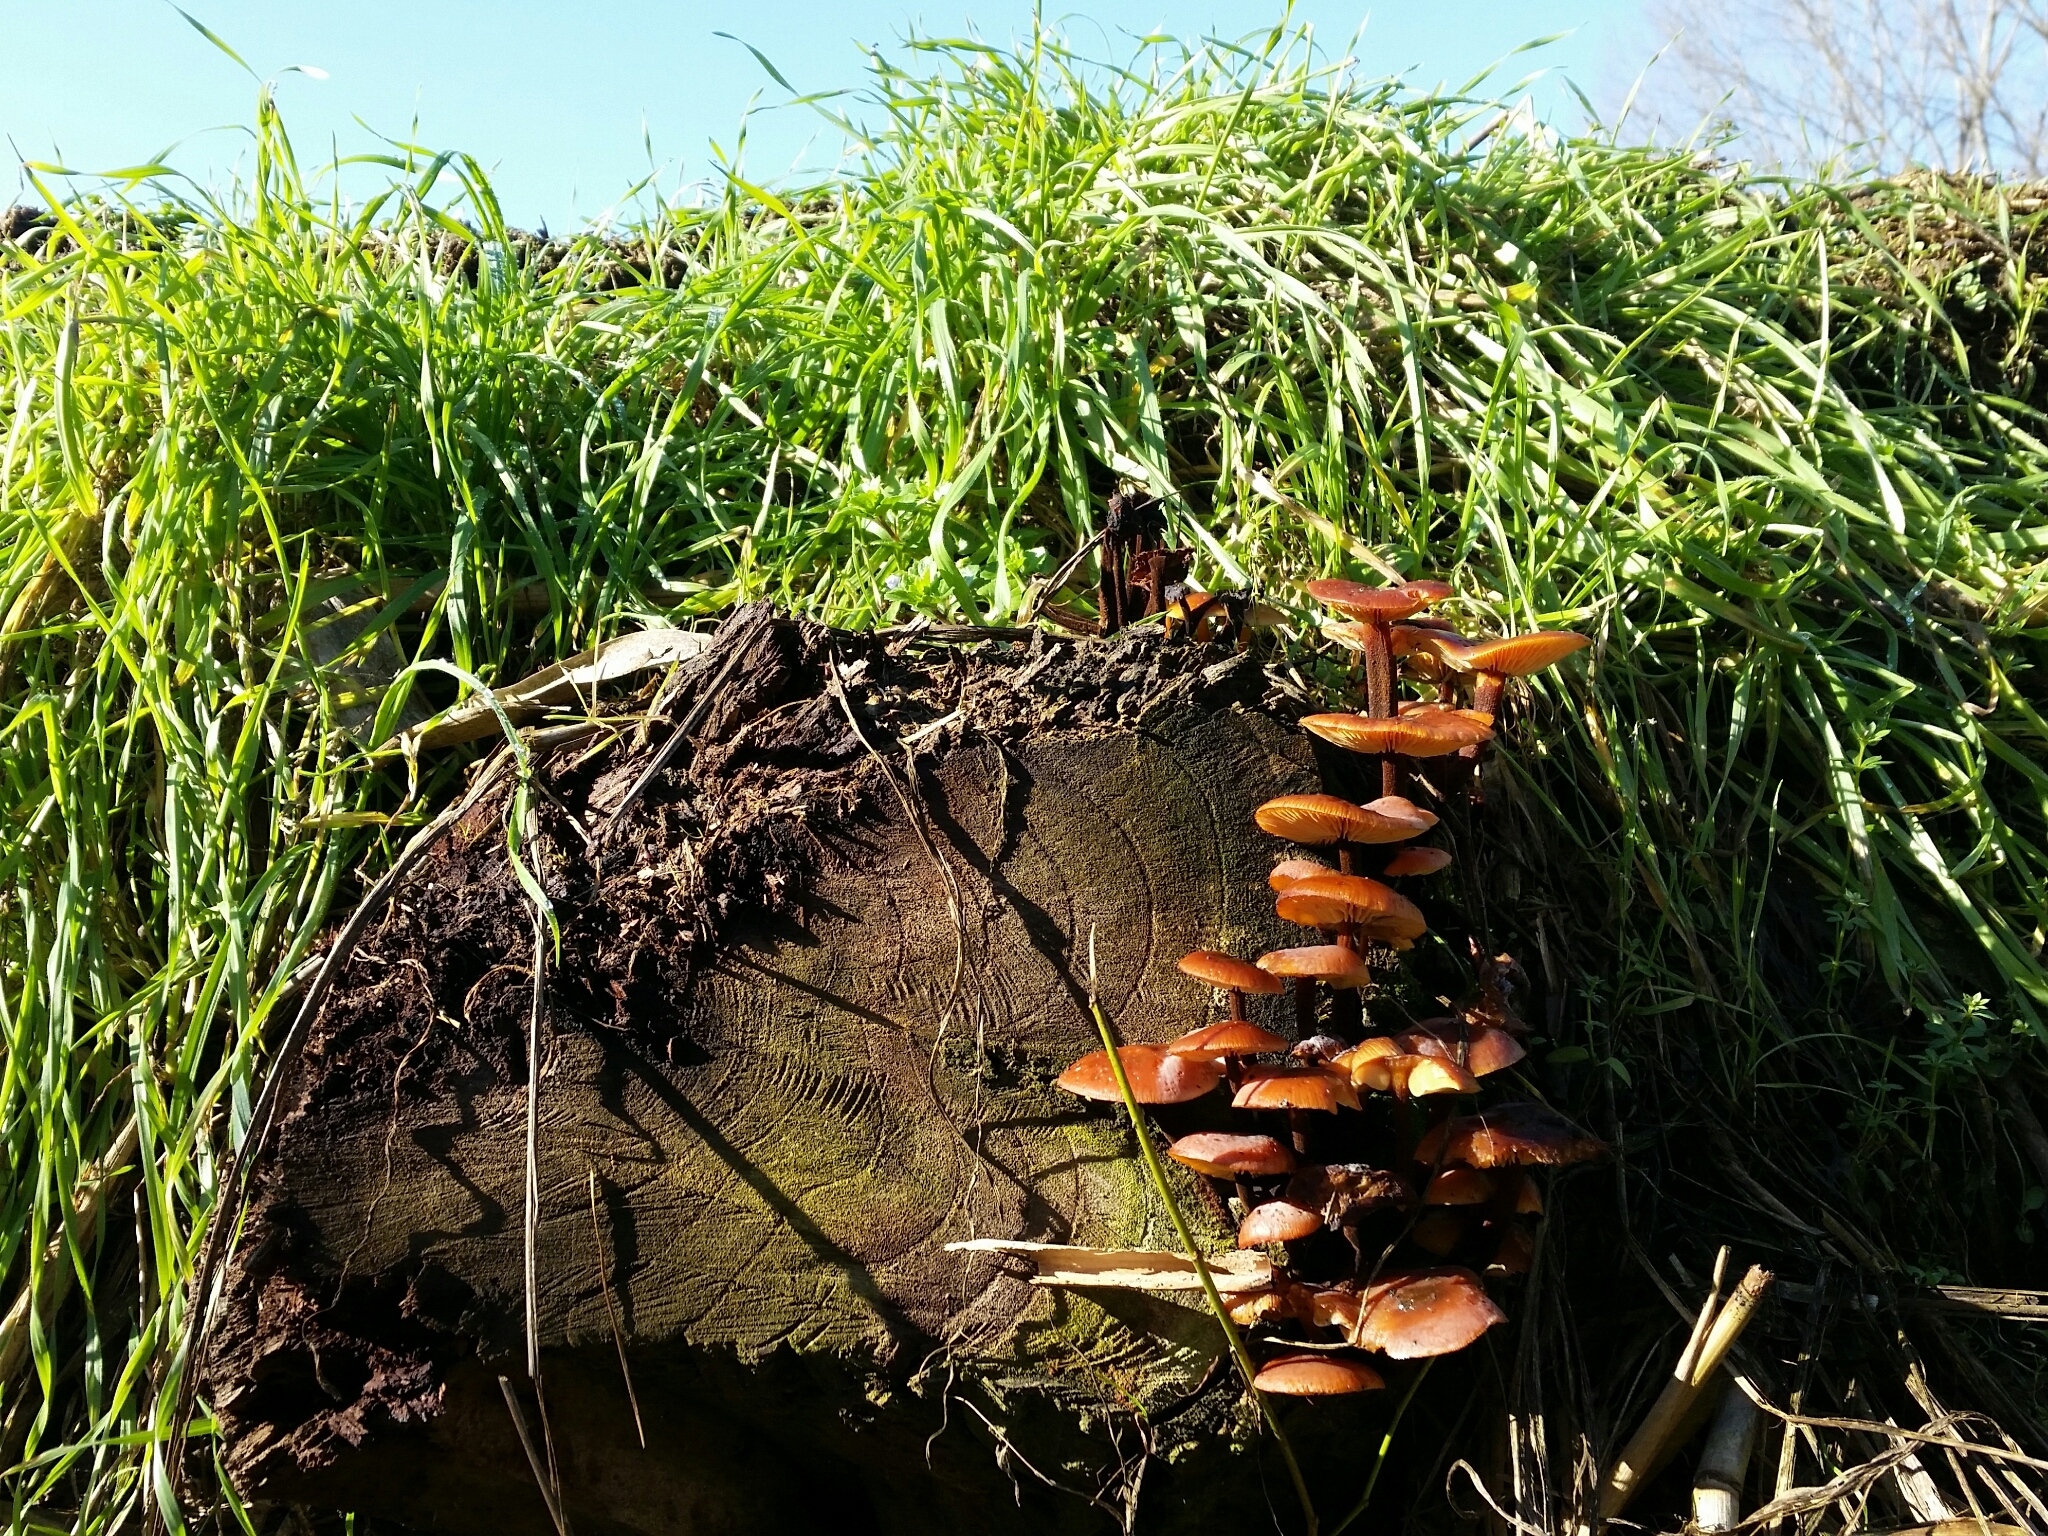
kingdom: Fungi
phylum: Basidiomycota
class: Agaricomycetes
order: Agaricales
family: Physalacriaceae
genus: Flammulina
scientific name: Flammulina
